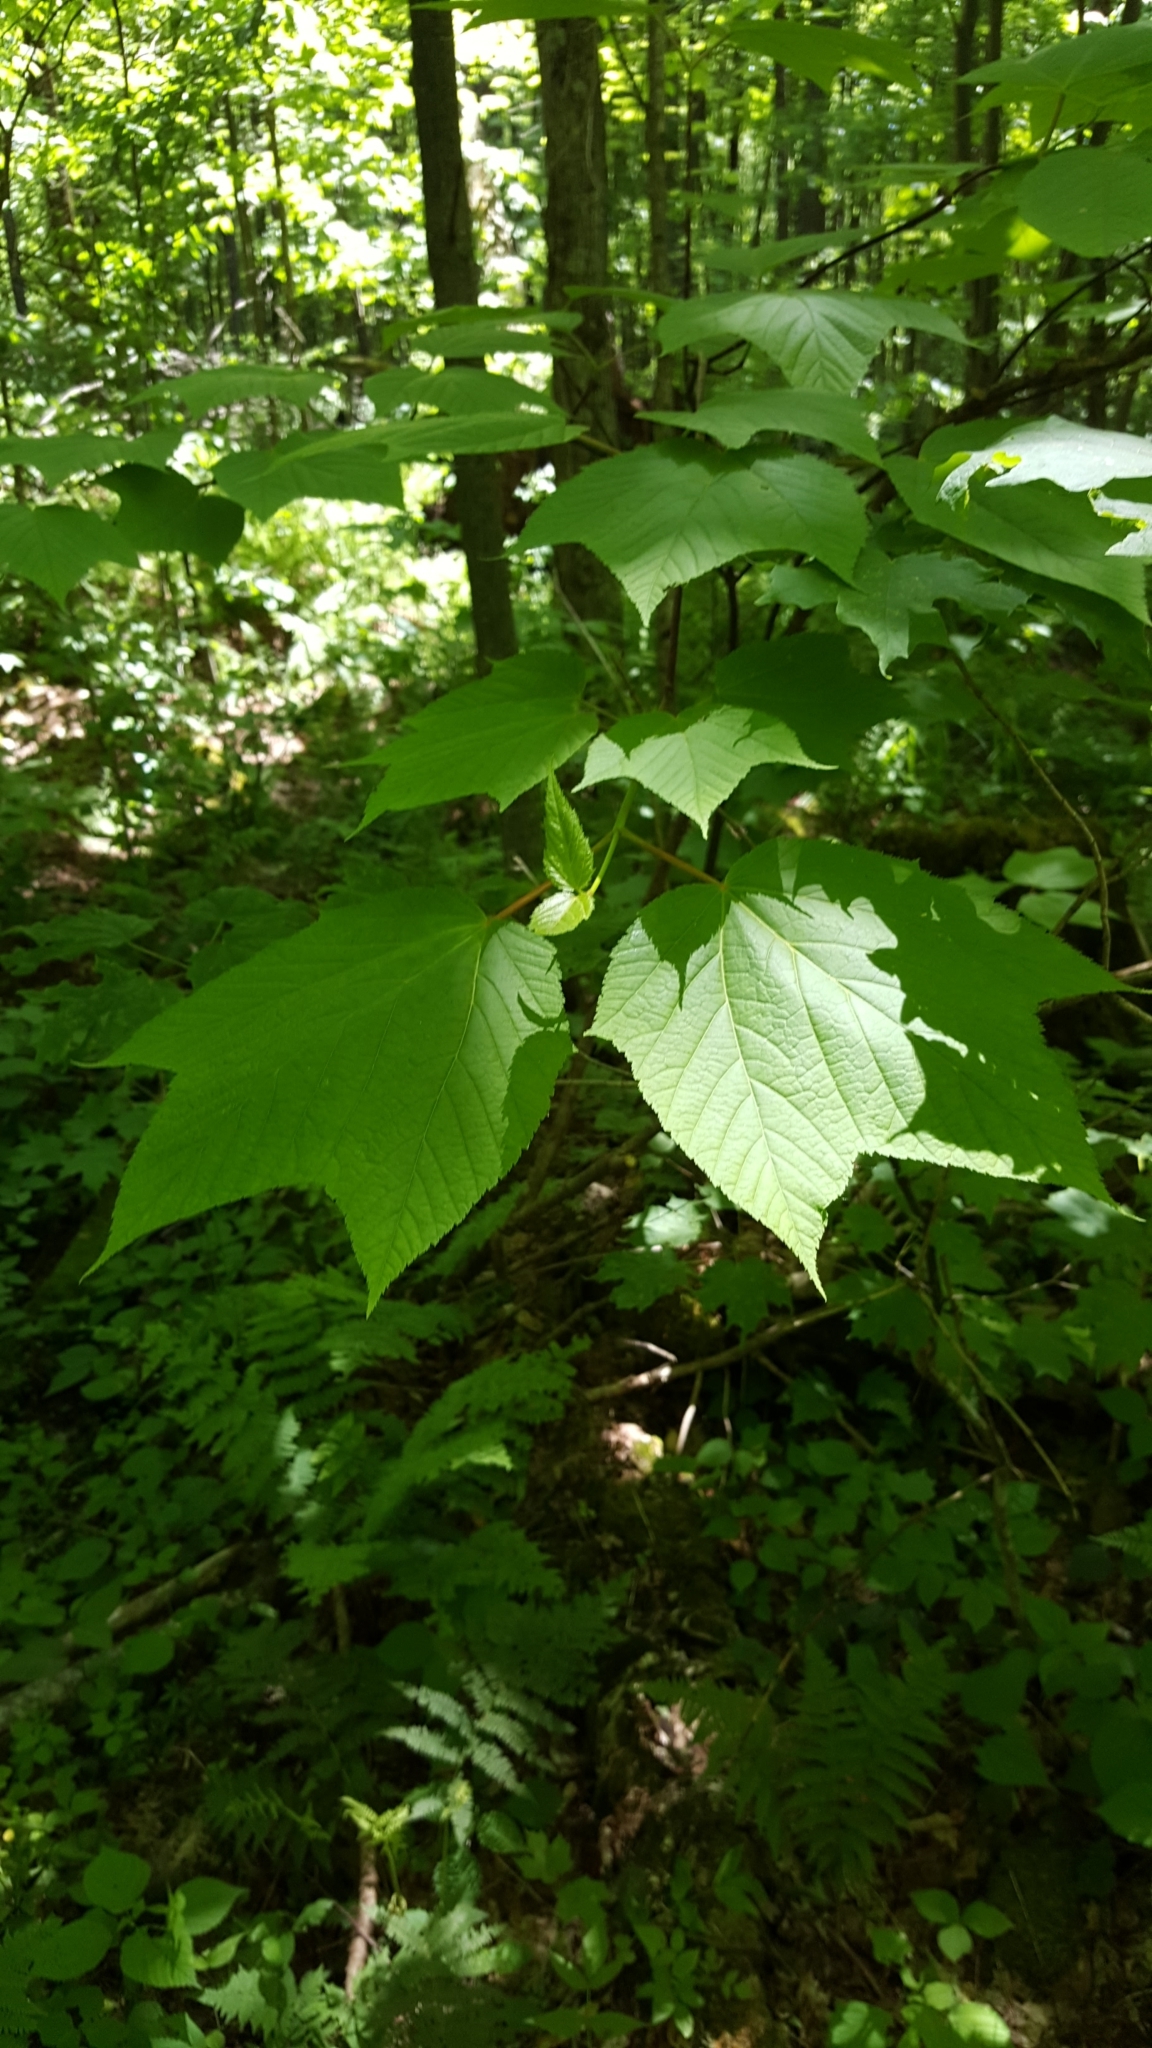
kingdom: Plantae
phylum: Tracheophyta
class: Magnoliopsida
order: Sapindales
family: Sapindaceae
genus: Acer
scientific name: Acer pensylvanicum
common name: Moosewood
